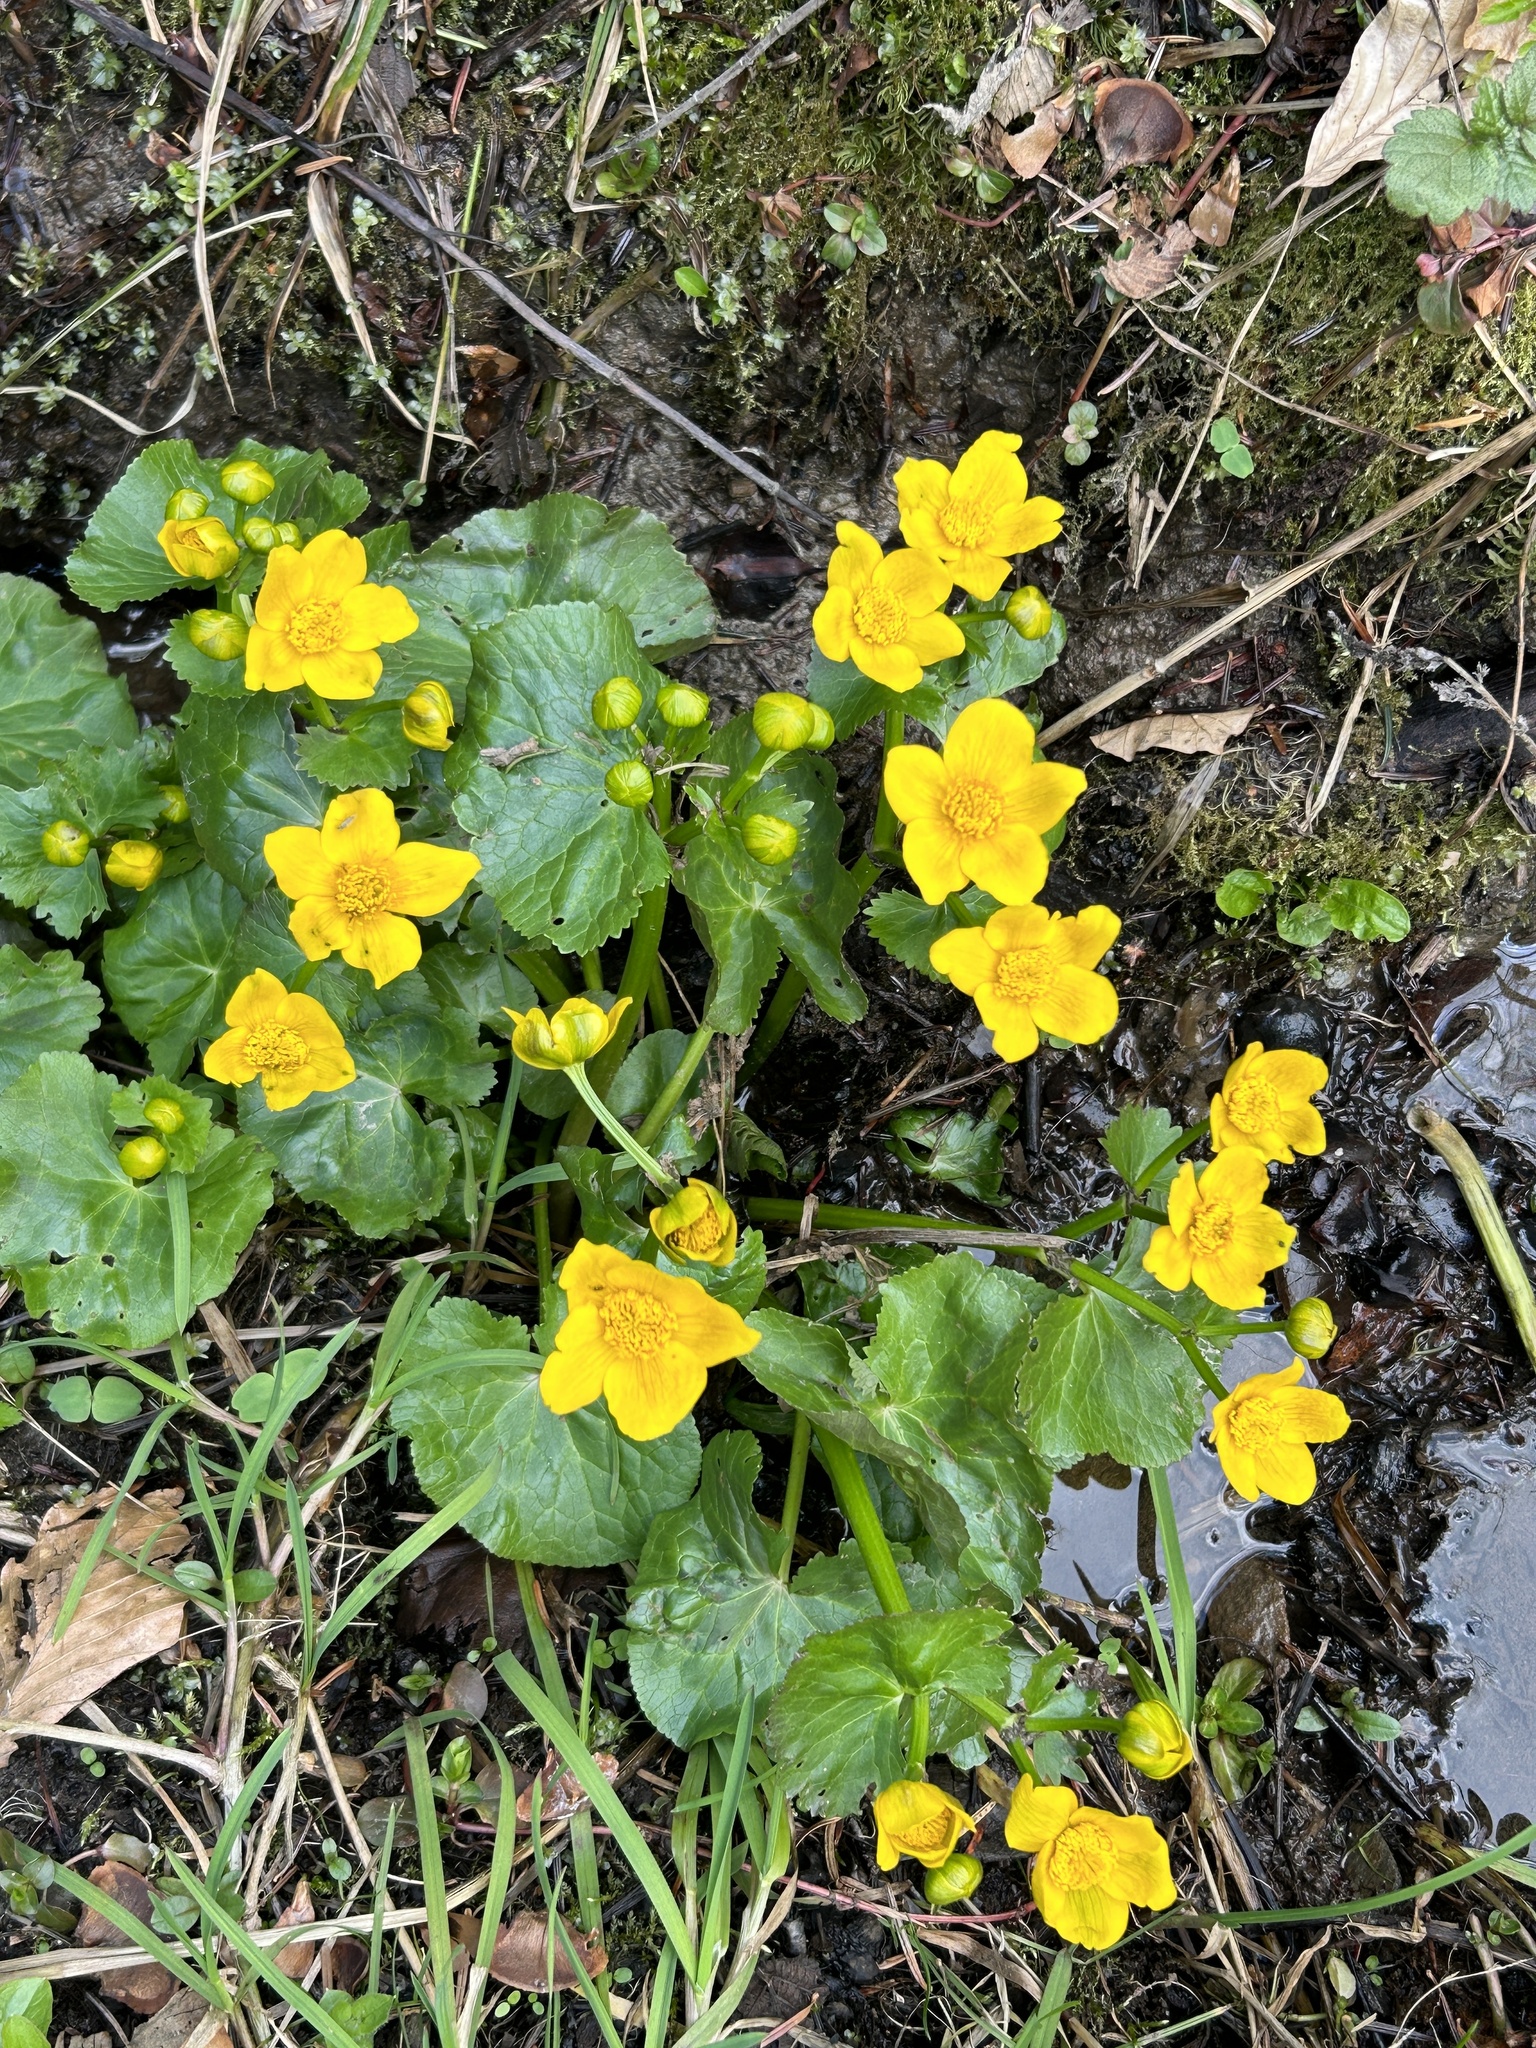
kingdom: Plantae
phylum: Tracheophyta
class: Magnoliopsida
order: Ranunculales
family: Ranunculaceae
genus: Caltha
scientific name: Caltha palustris
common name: Marsh marigold
